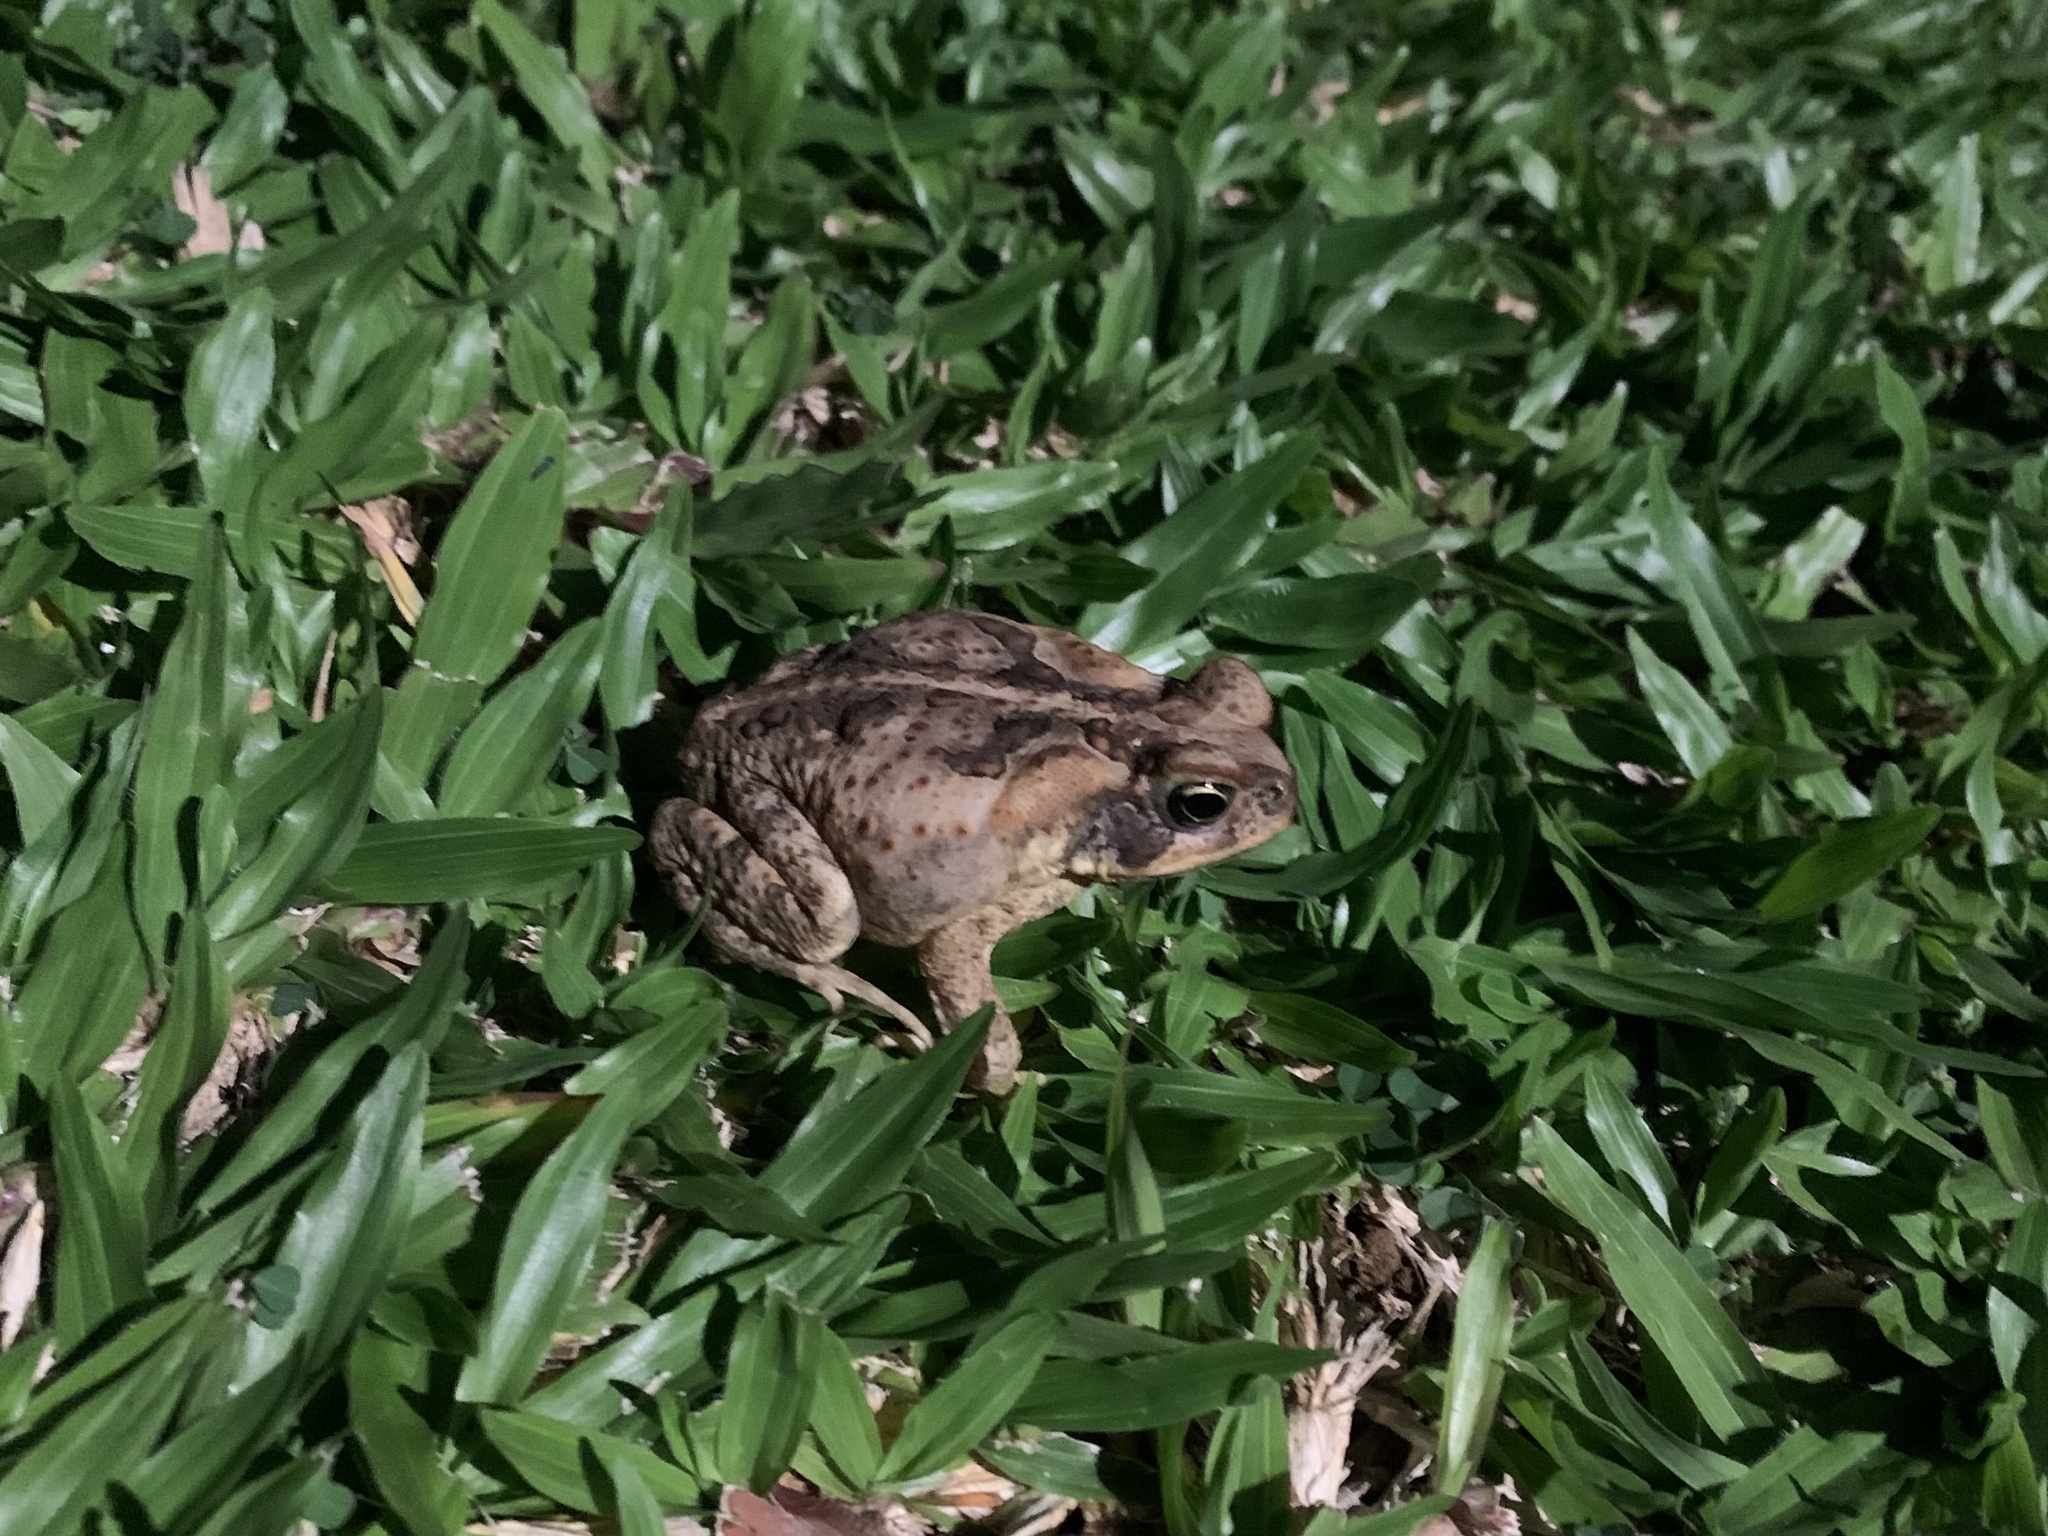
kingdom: Animalia
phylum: Chordata
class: Amphibia
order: Anura
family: Bufonidae
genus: Rhinella
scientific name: Rhinella marina
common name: Cane toad
